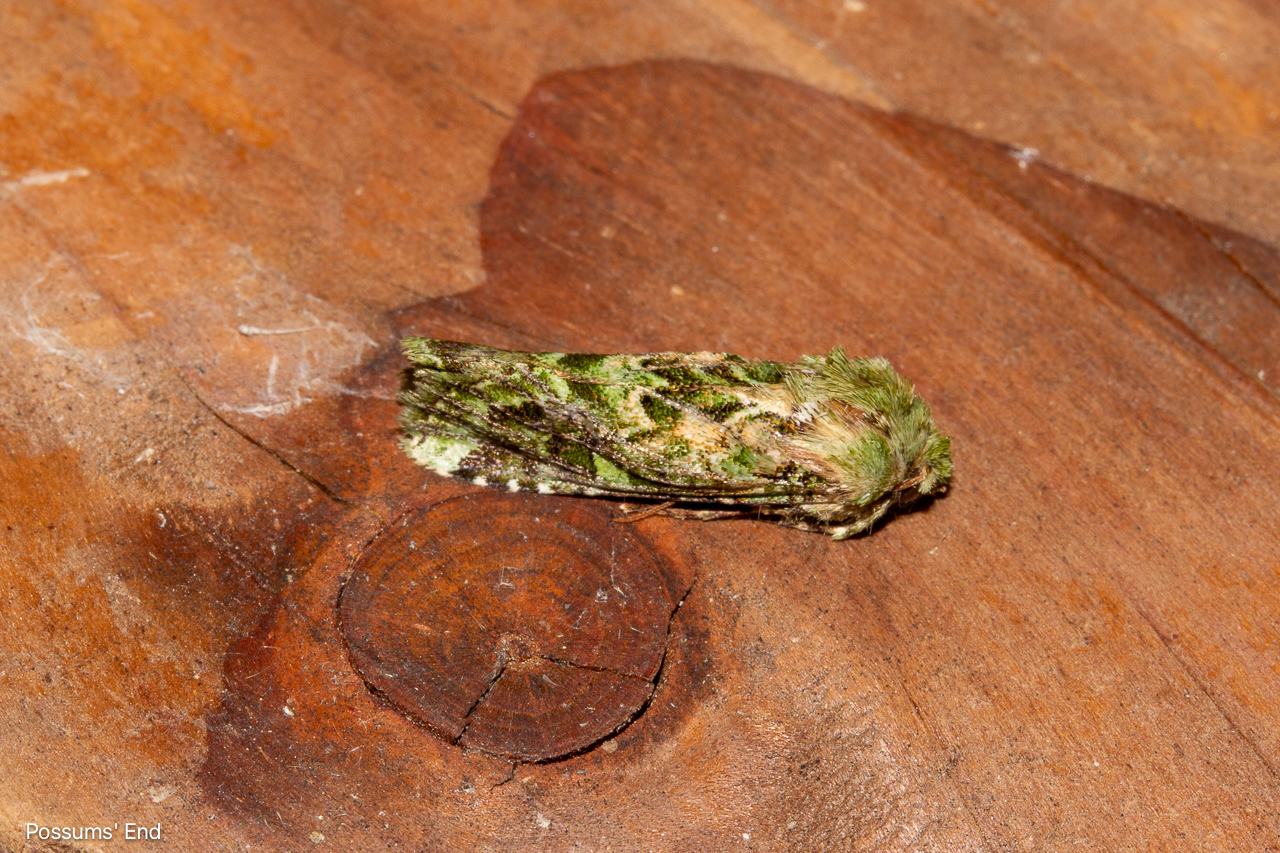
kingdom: Animalia
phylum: Arthropoda
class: Insecta
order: Lepidoptera
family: Noctuidae
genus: Feredayia
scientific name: Feredayia grammosa
